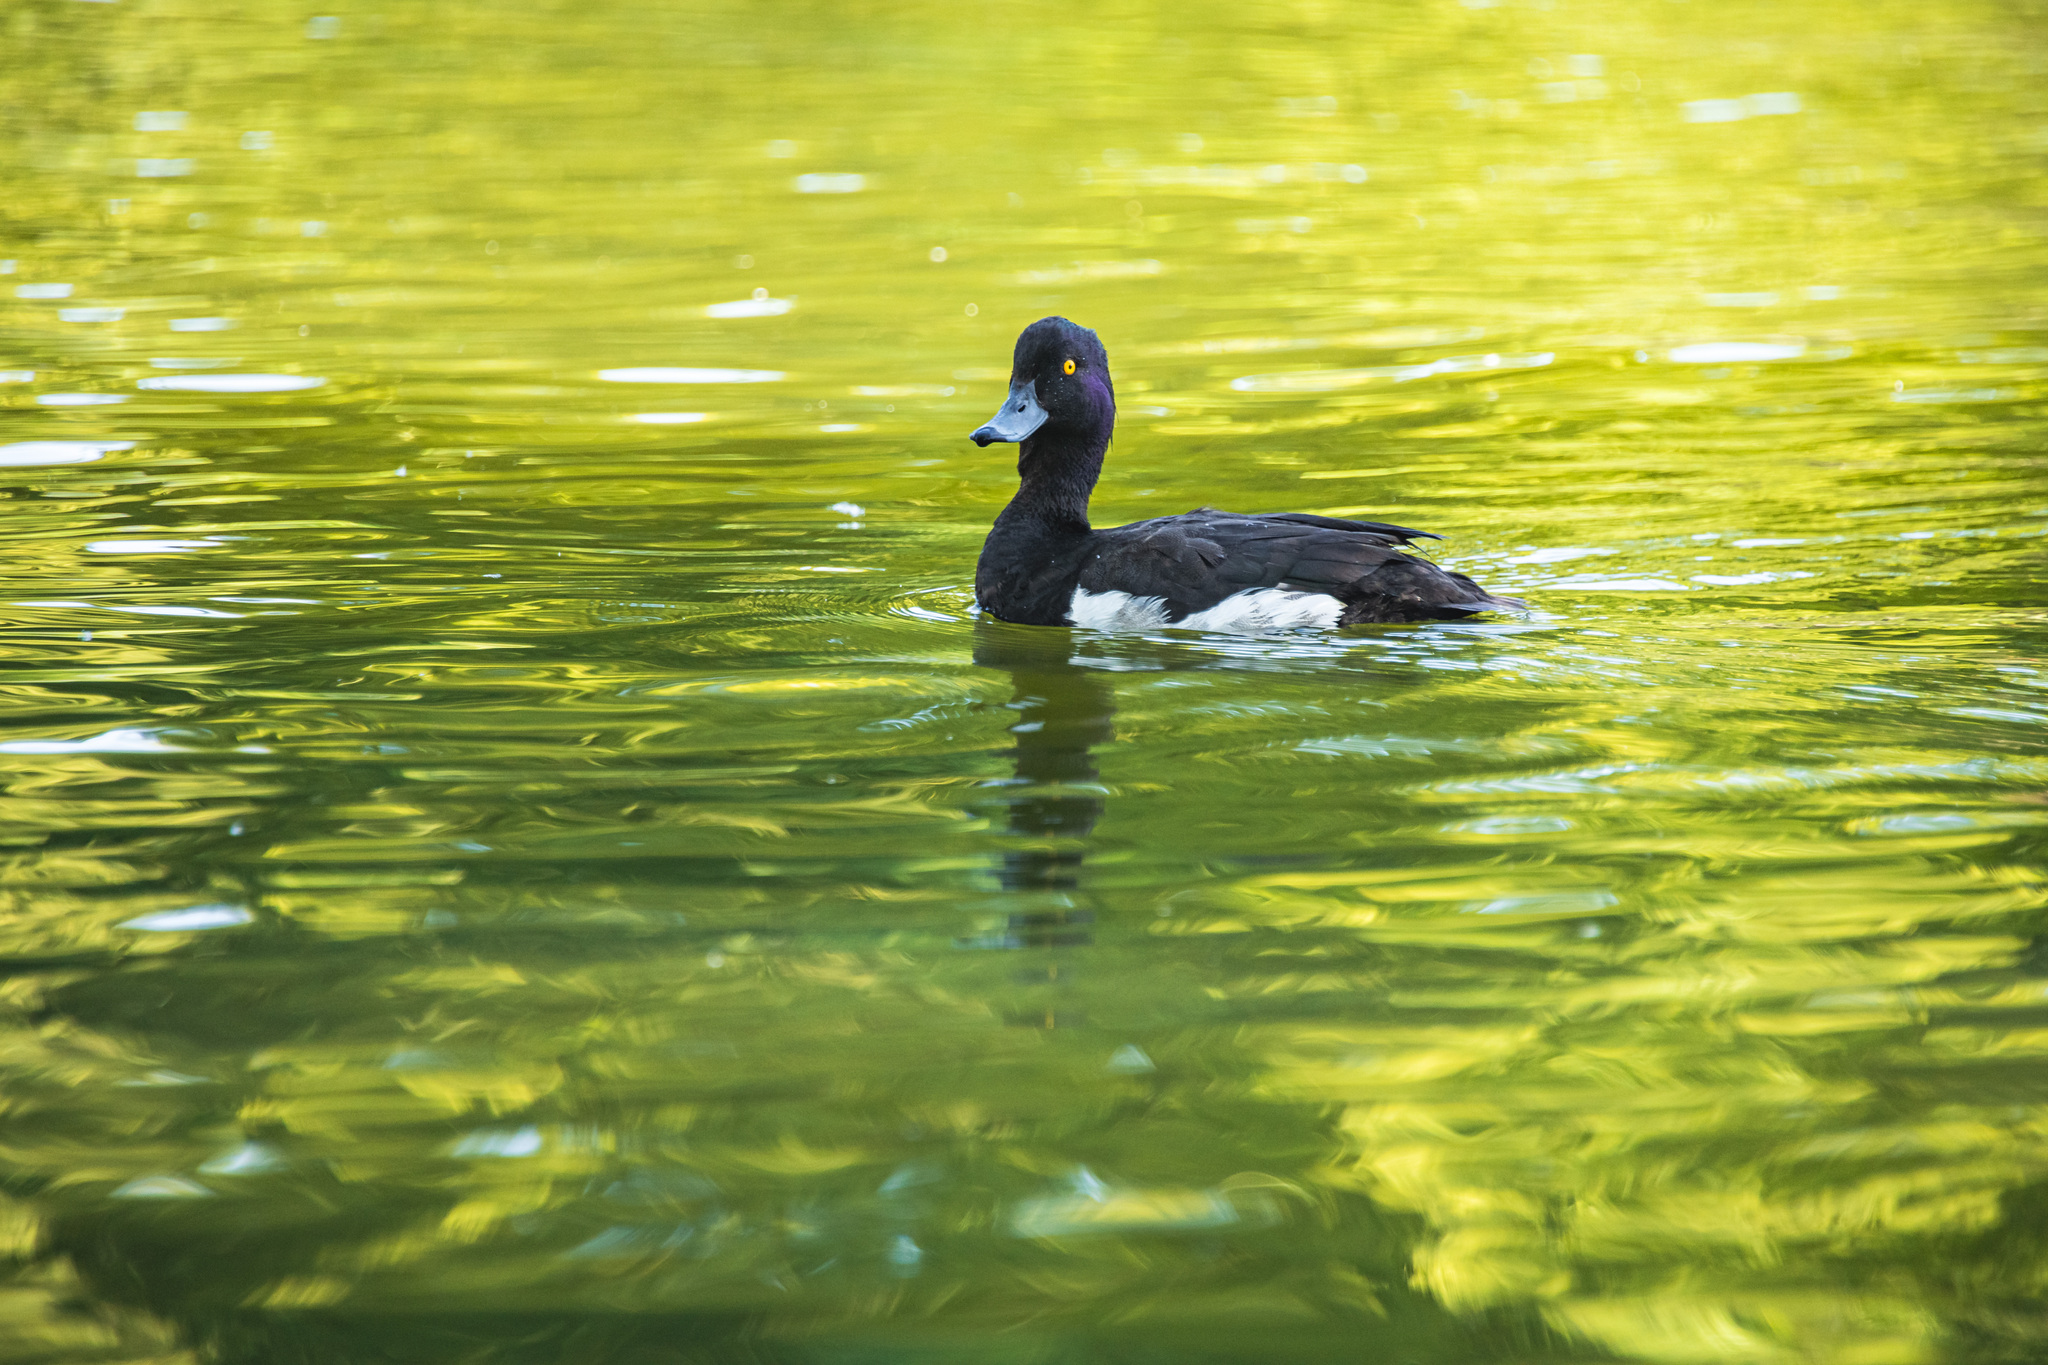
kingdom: Animalia
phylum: Chordata
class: Aves
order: Anseriformes
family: Anatidae
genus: Aythya
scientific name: Aythya fuligula
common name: Tufted duck
